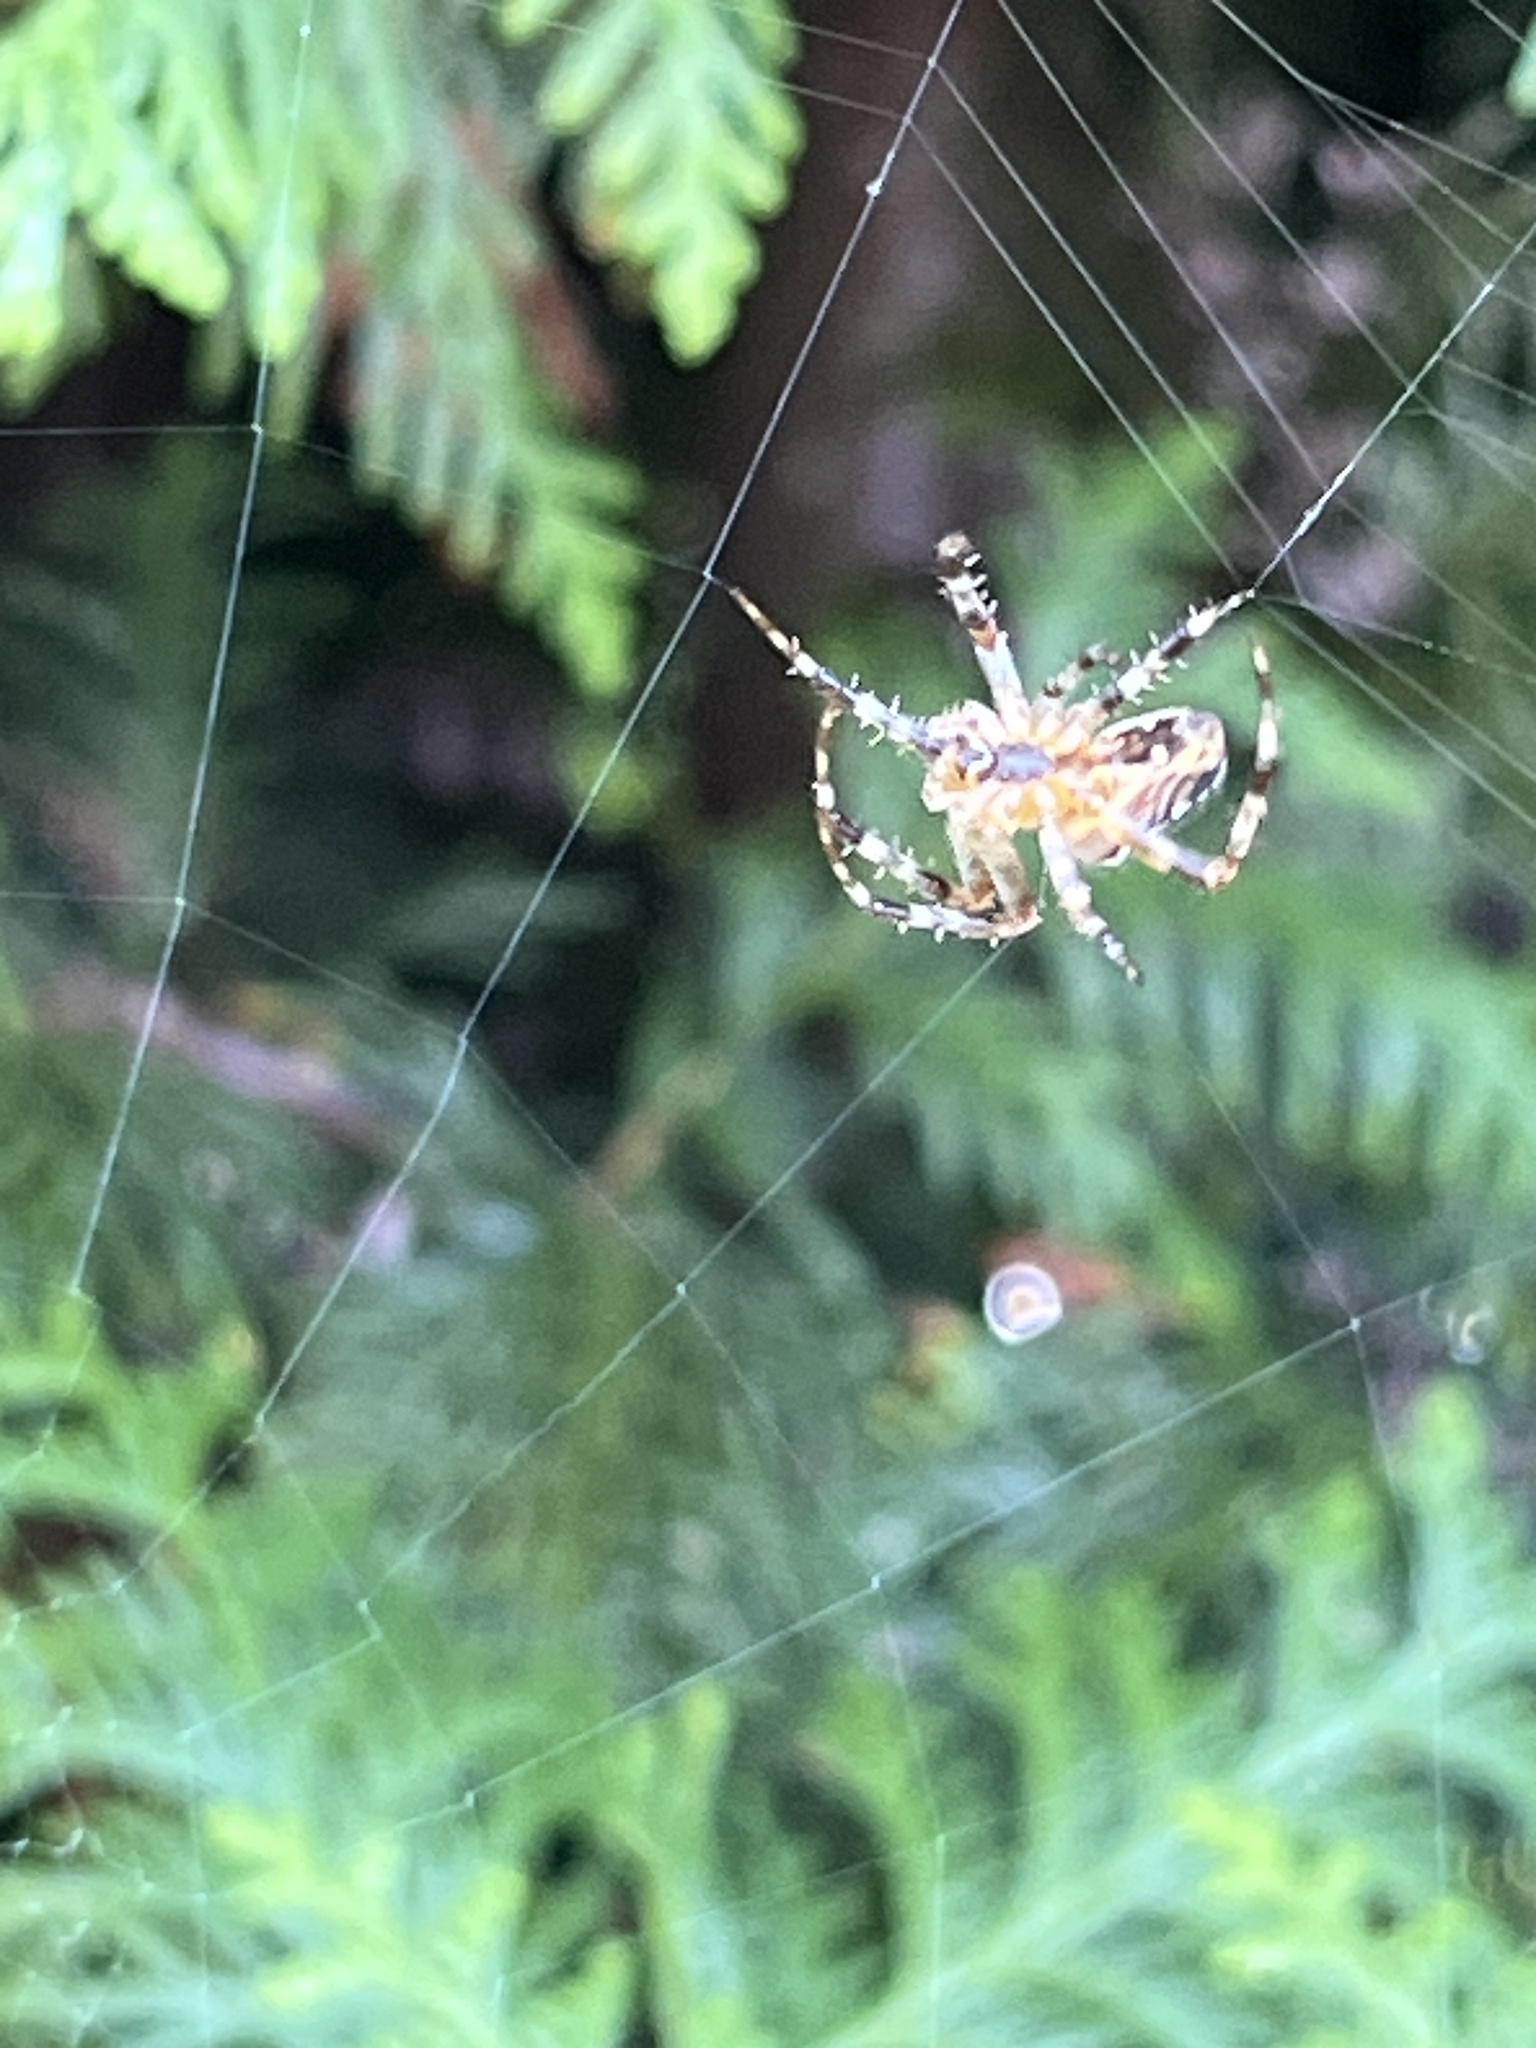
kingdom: Animalia
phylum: Arthropoda
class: Arachnida
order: Araneae
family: Araneidae
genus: Araneus
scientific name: Araneus diadematus
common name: Cross orbweaver
